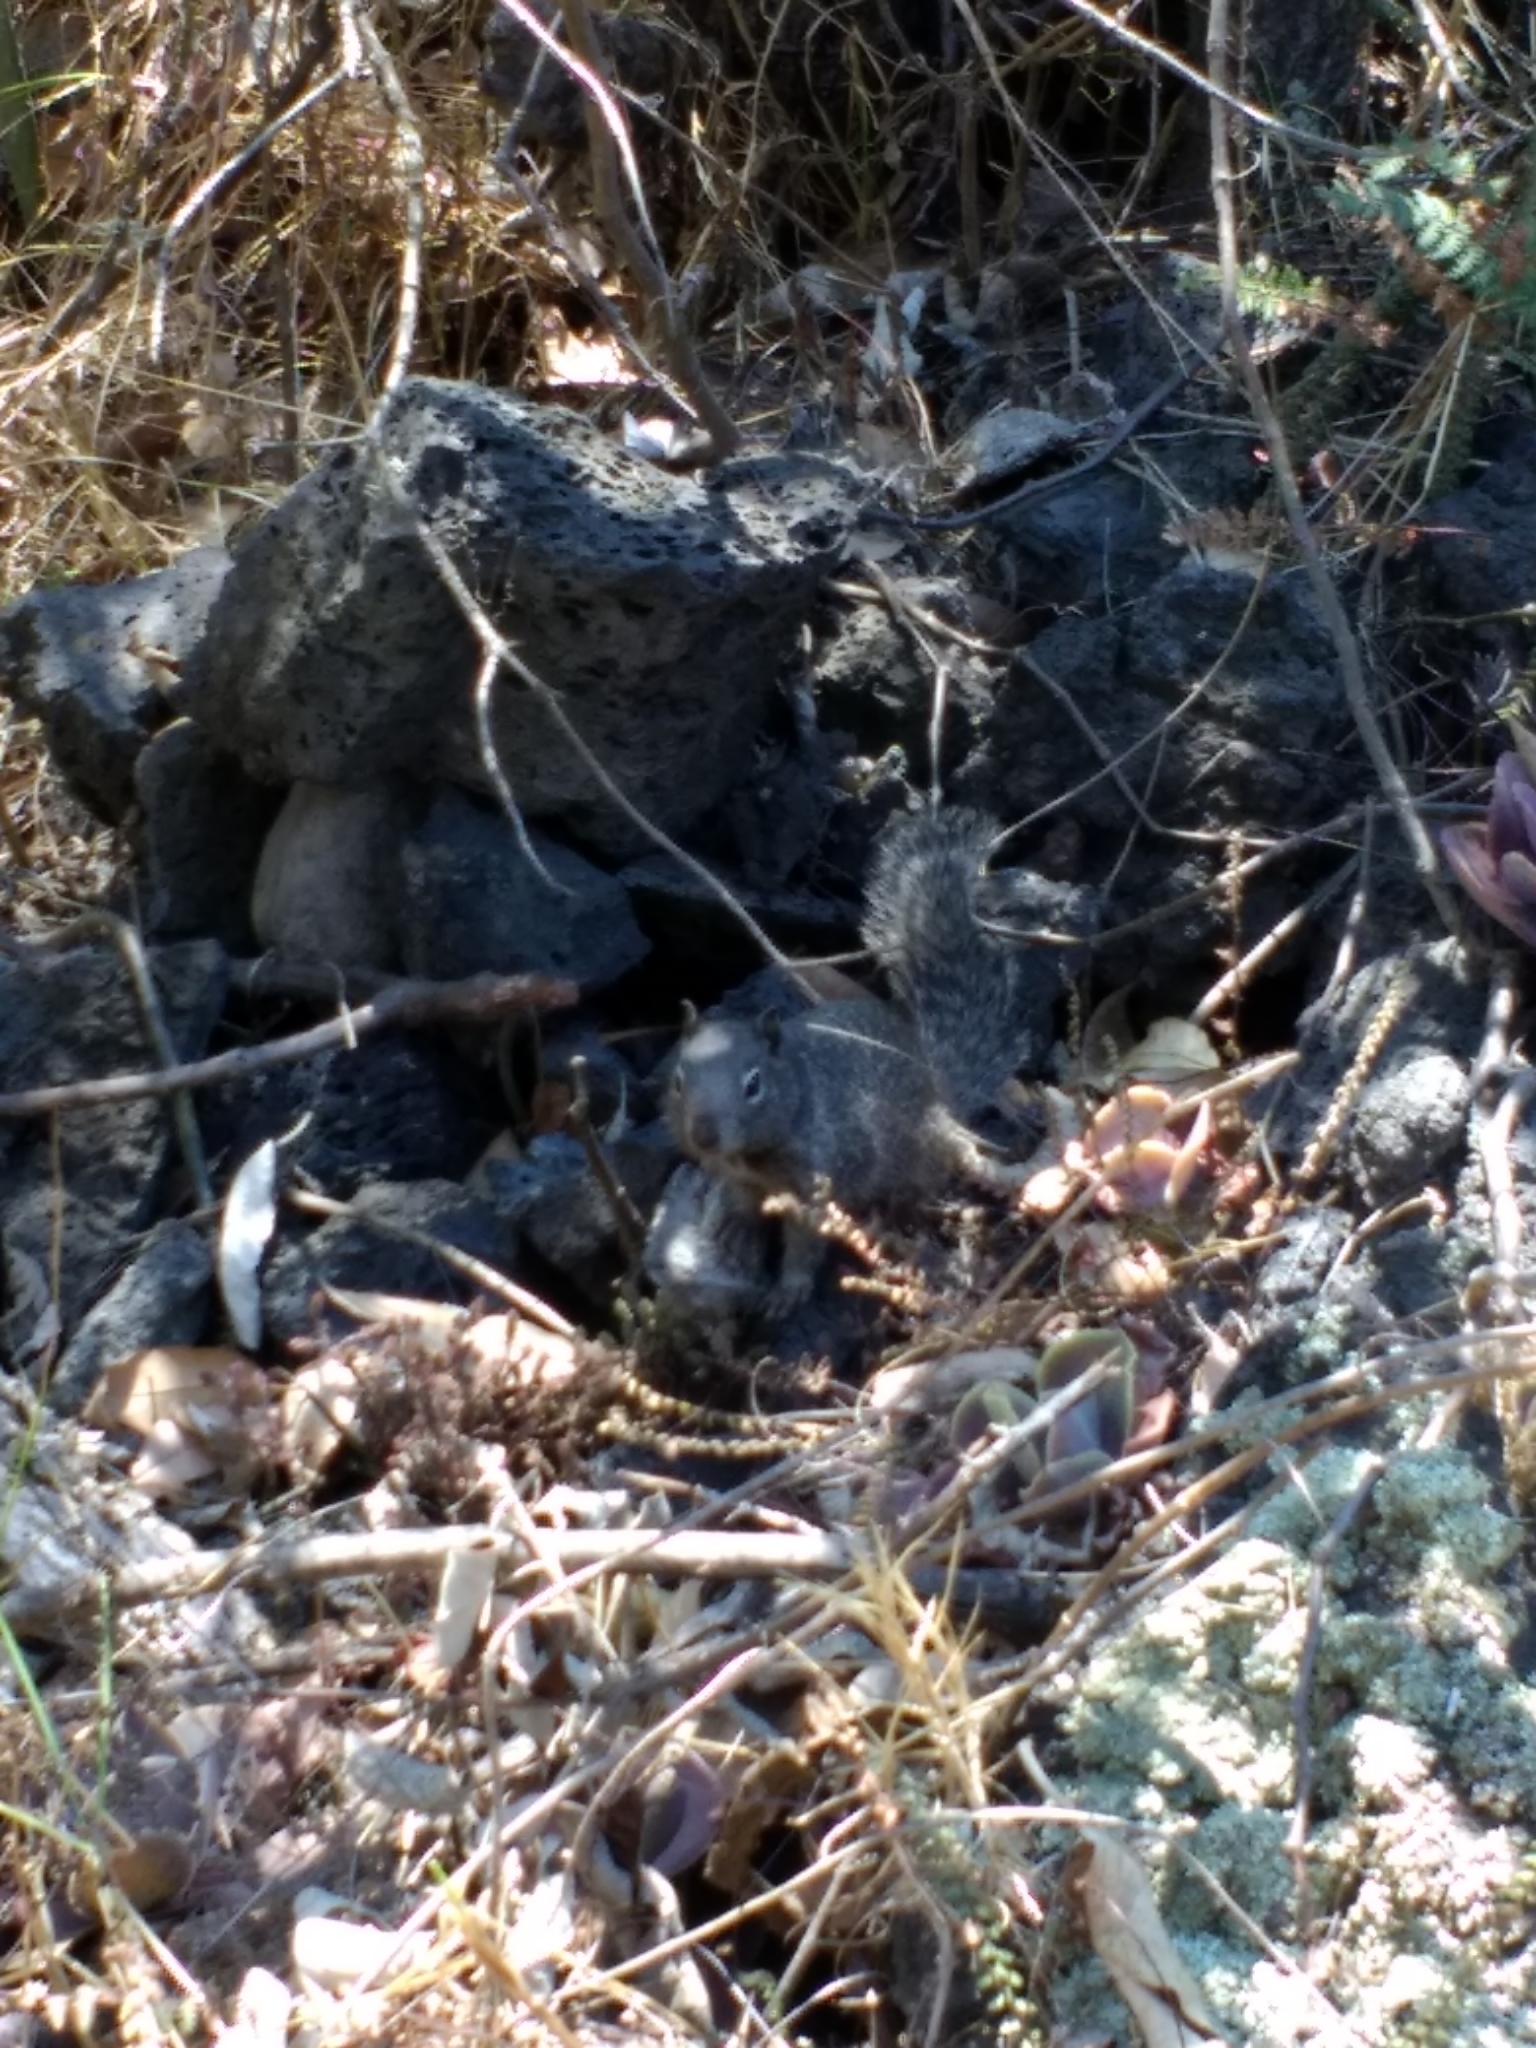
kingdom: Animalia
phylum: Chordata
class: Mammalia
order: Rodentia
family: Sciuridae
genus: Otospermophilus
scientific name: Otospermophilus variegatus
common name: Rock squirrel
